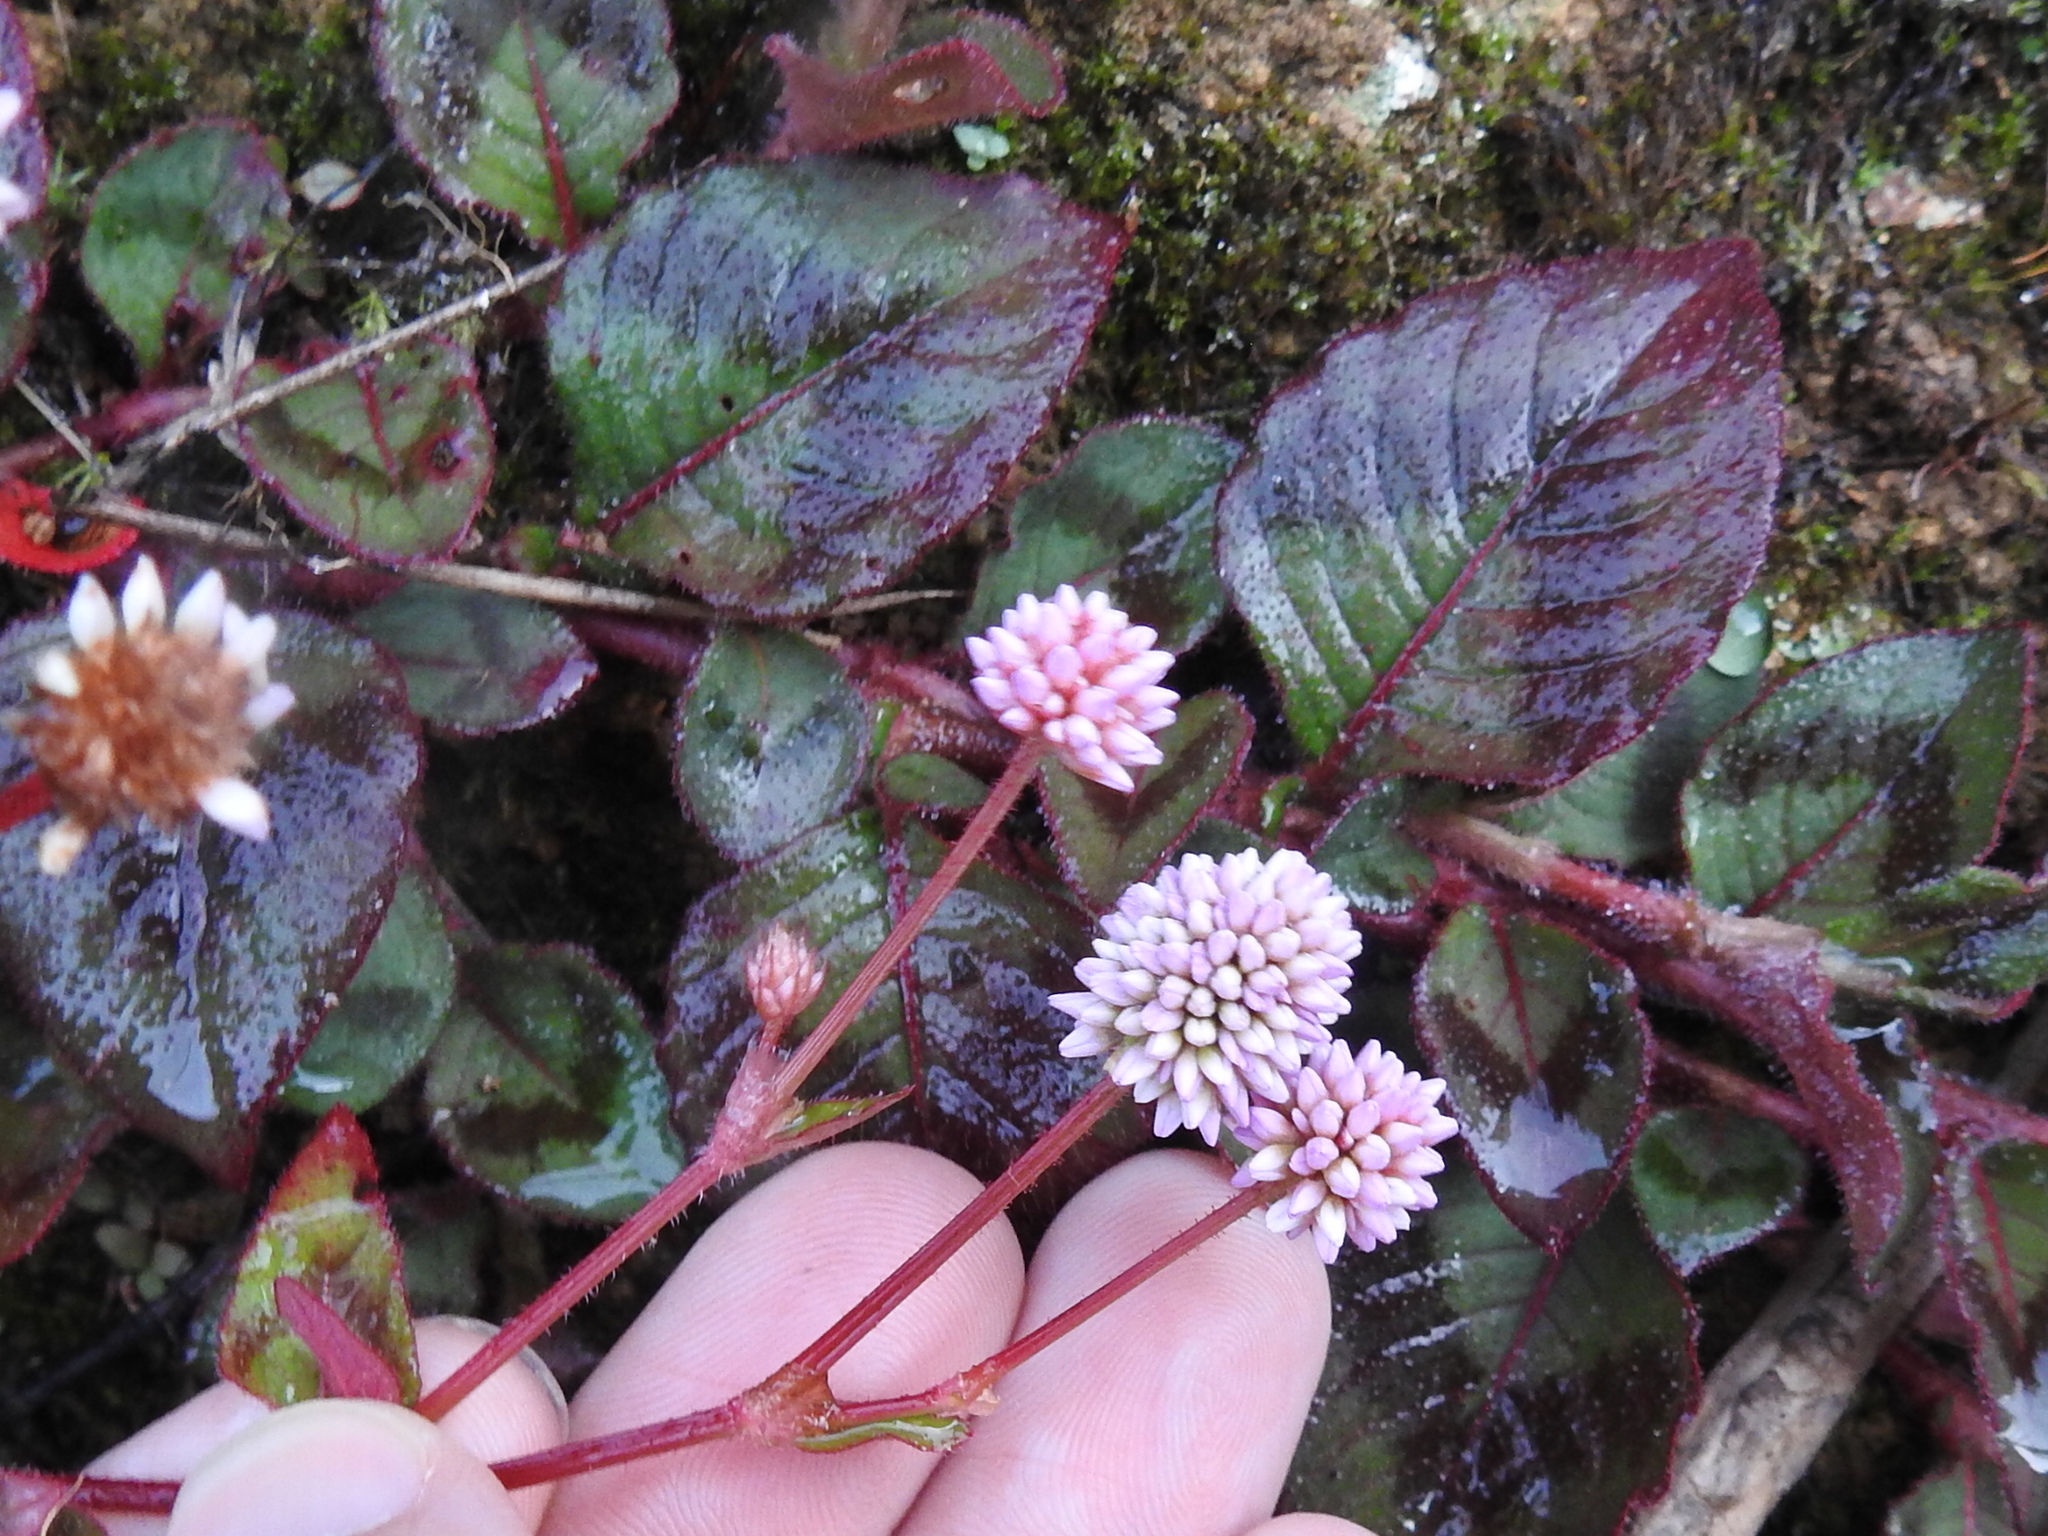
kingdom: Plantae
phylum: Tracheophyta
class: Magnoliopsida
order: Caryophyllales
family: Polygonaceae
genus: Persicaria
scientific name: Persicaria capitata
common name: Pinkhead smartweed
